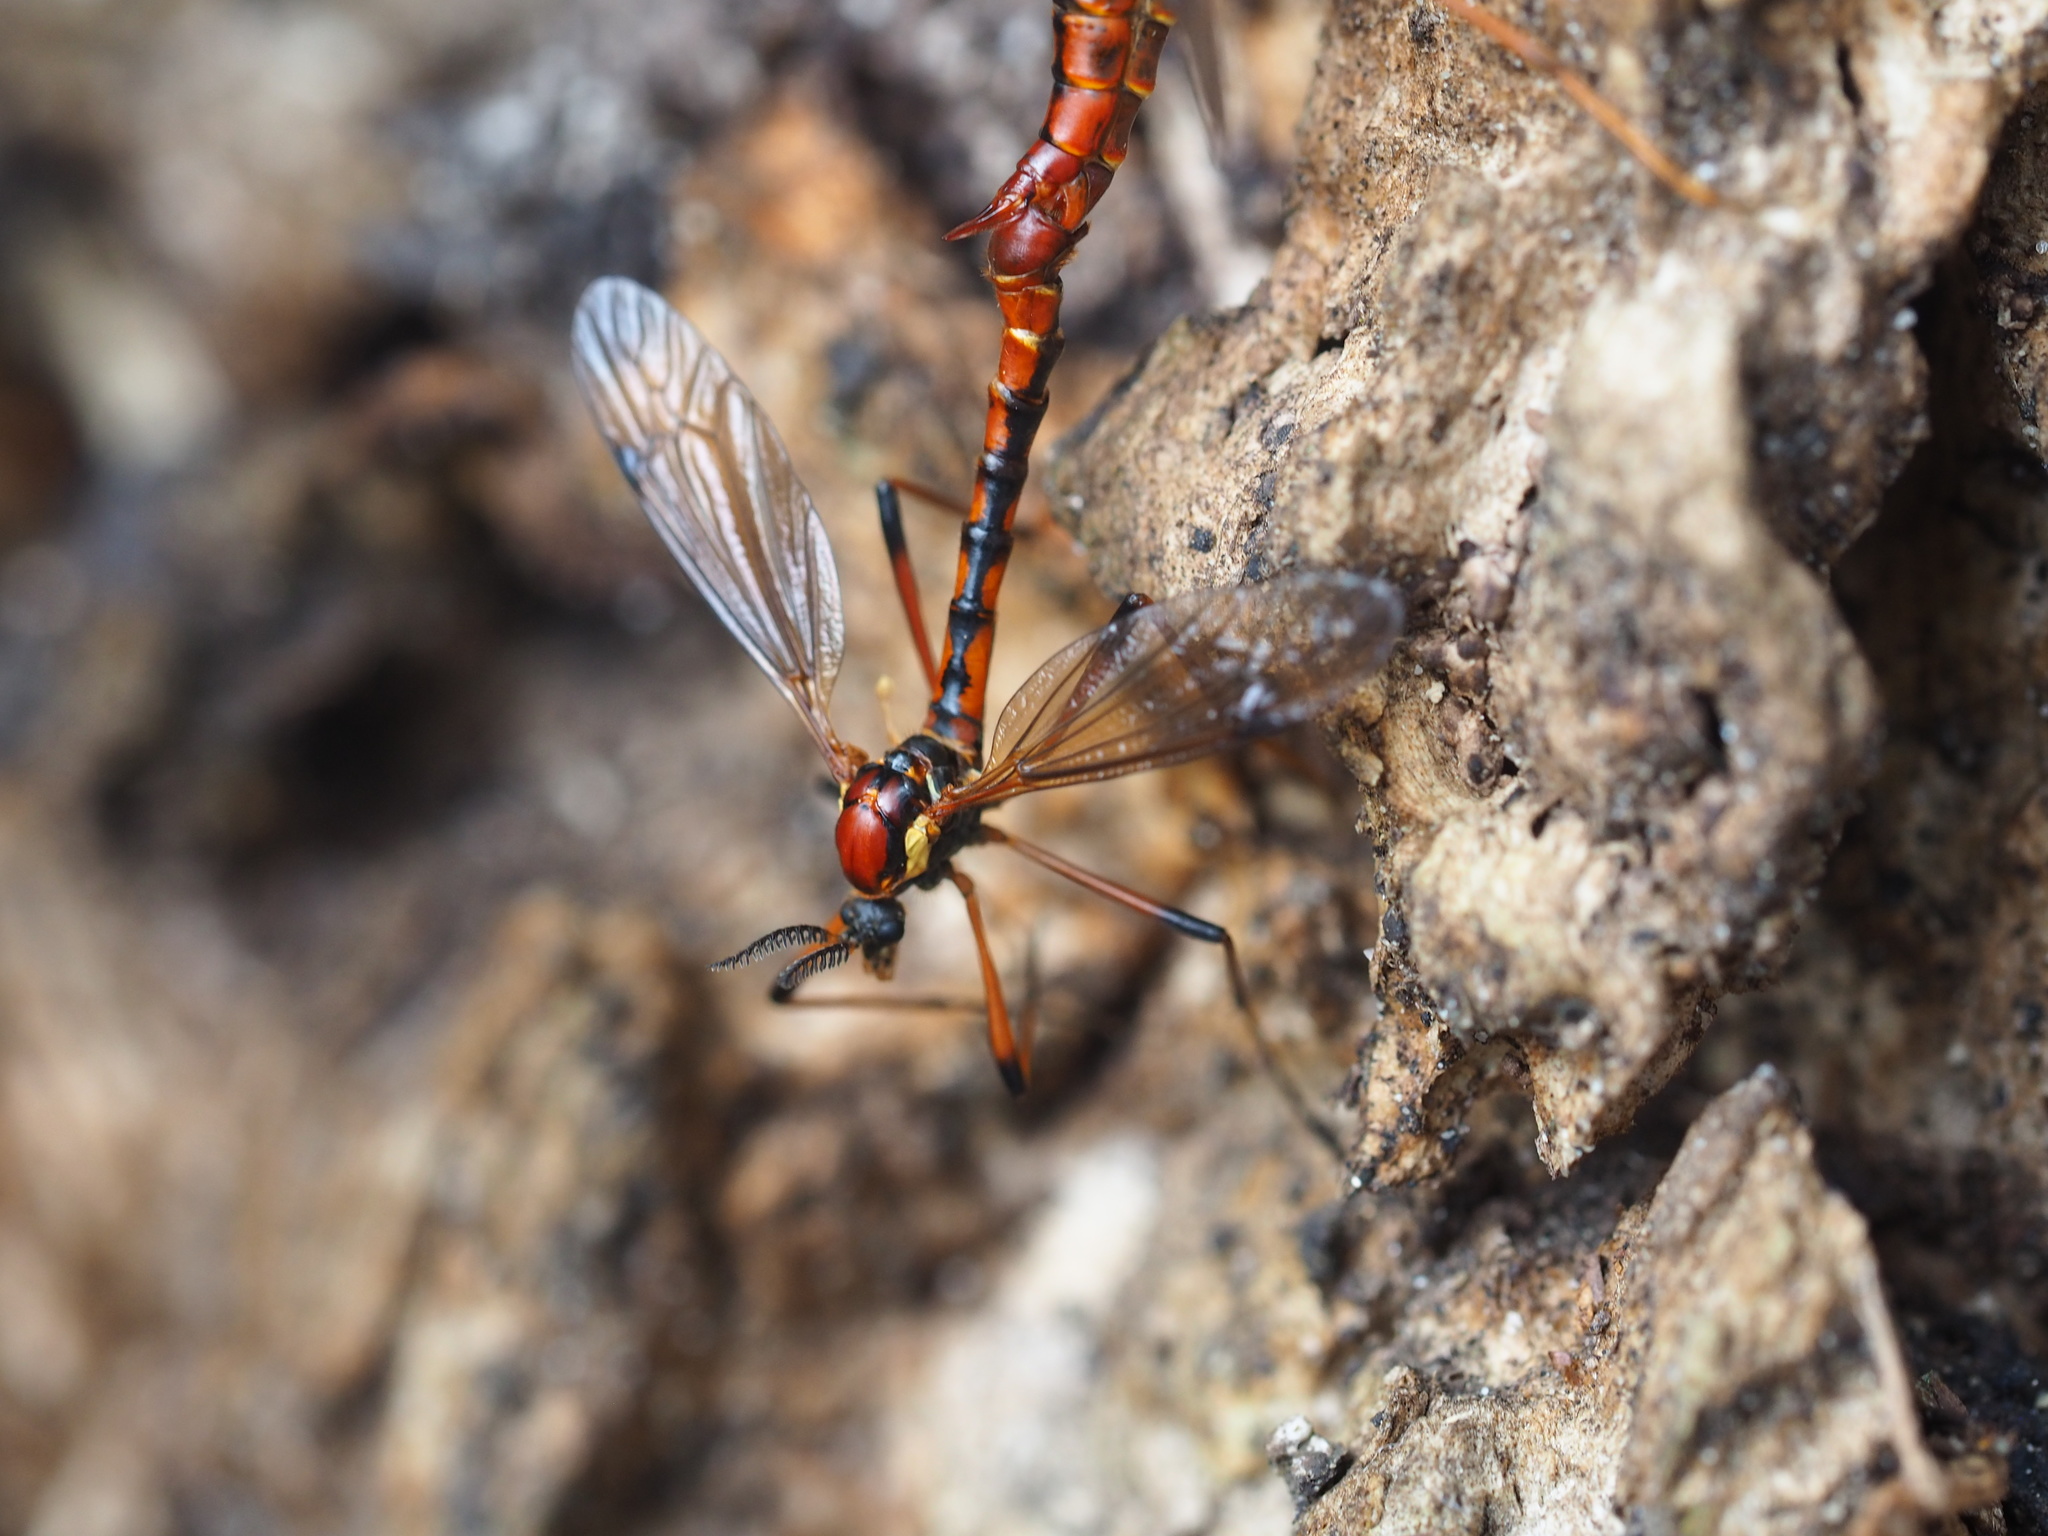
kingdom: Animalia
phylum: Arthropoda
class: Insecta
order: Diptera
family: Tipulidae
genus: Phoroctenia
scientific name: Phoroctenia vittata
